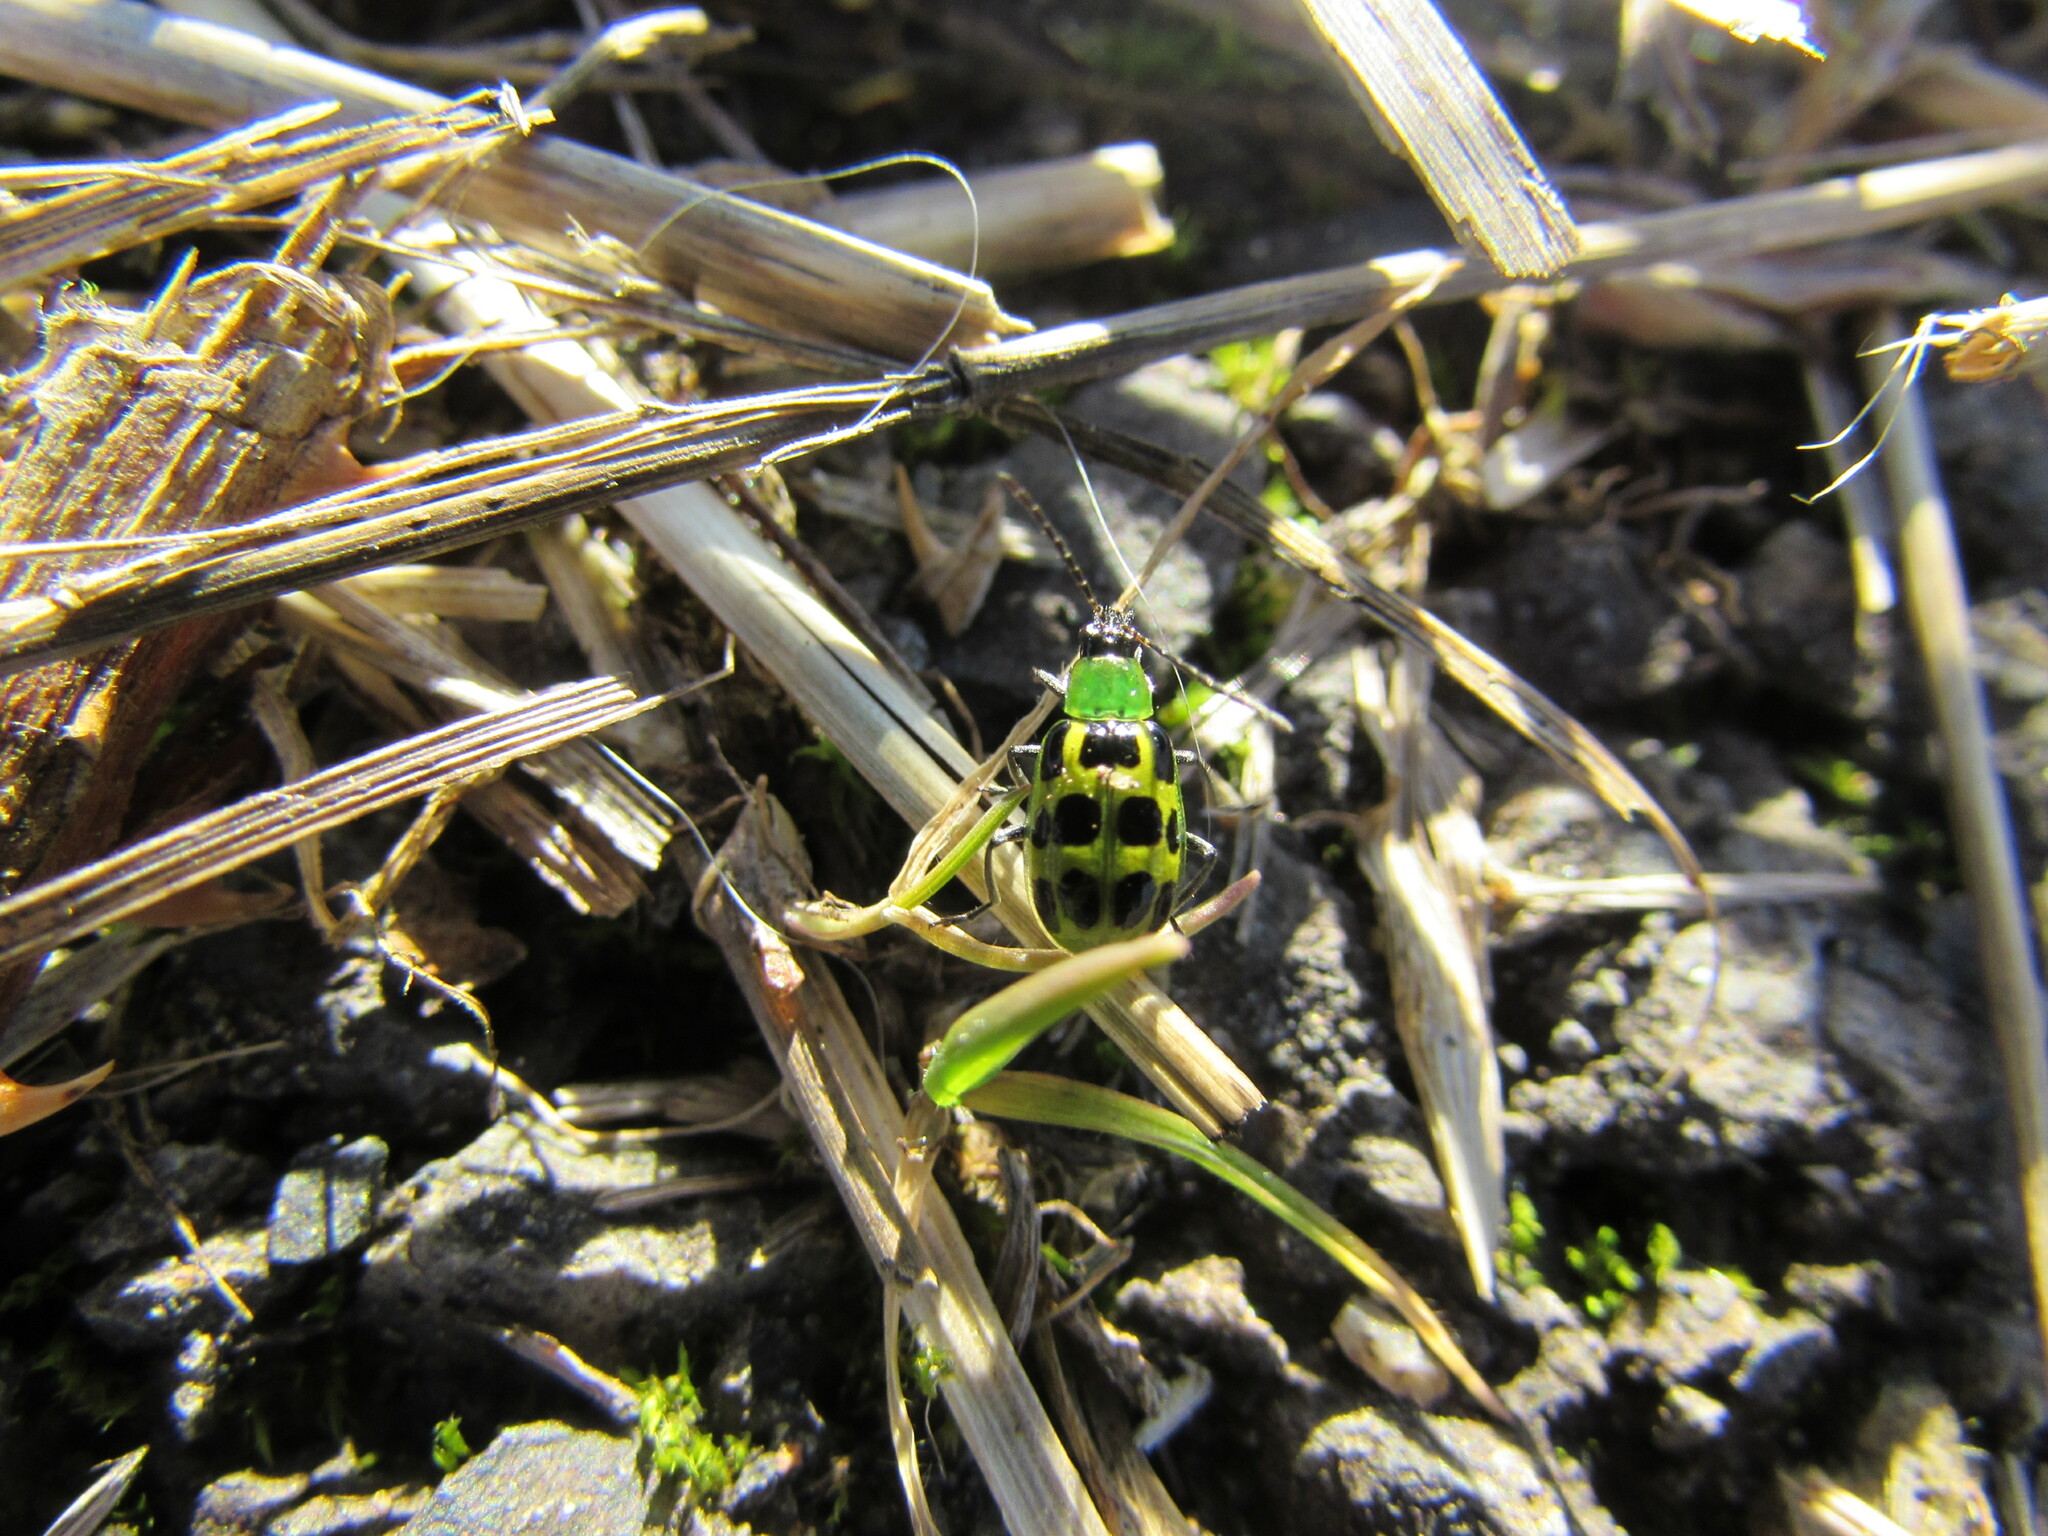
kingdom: Animalia
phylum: Arthropoda
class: Insecta
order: Coleoptera
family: Chrysomelidae
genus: Diabrotica
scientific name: Diabrotica undecimpunctata
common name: Spotted cucumber beetle
